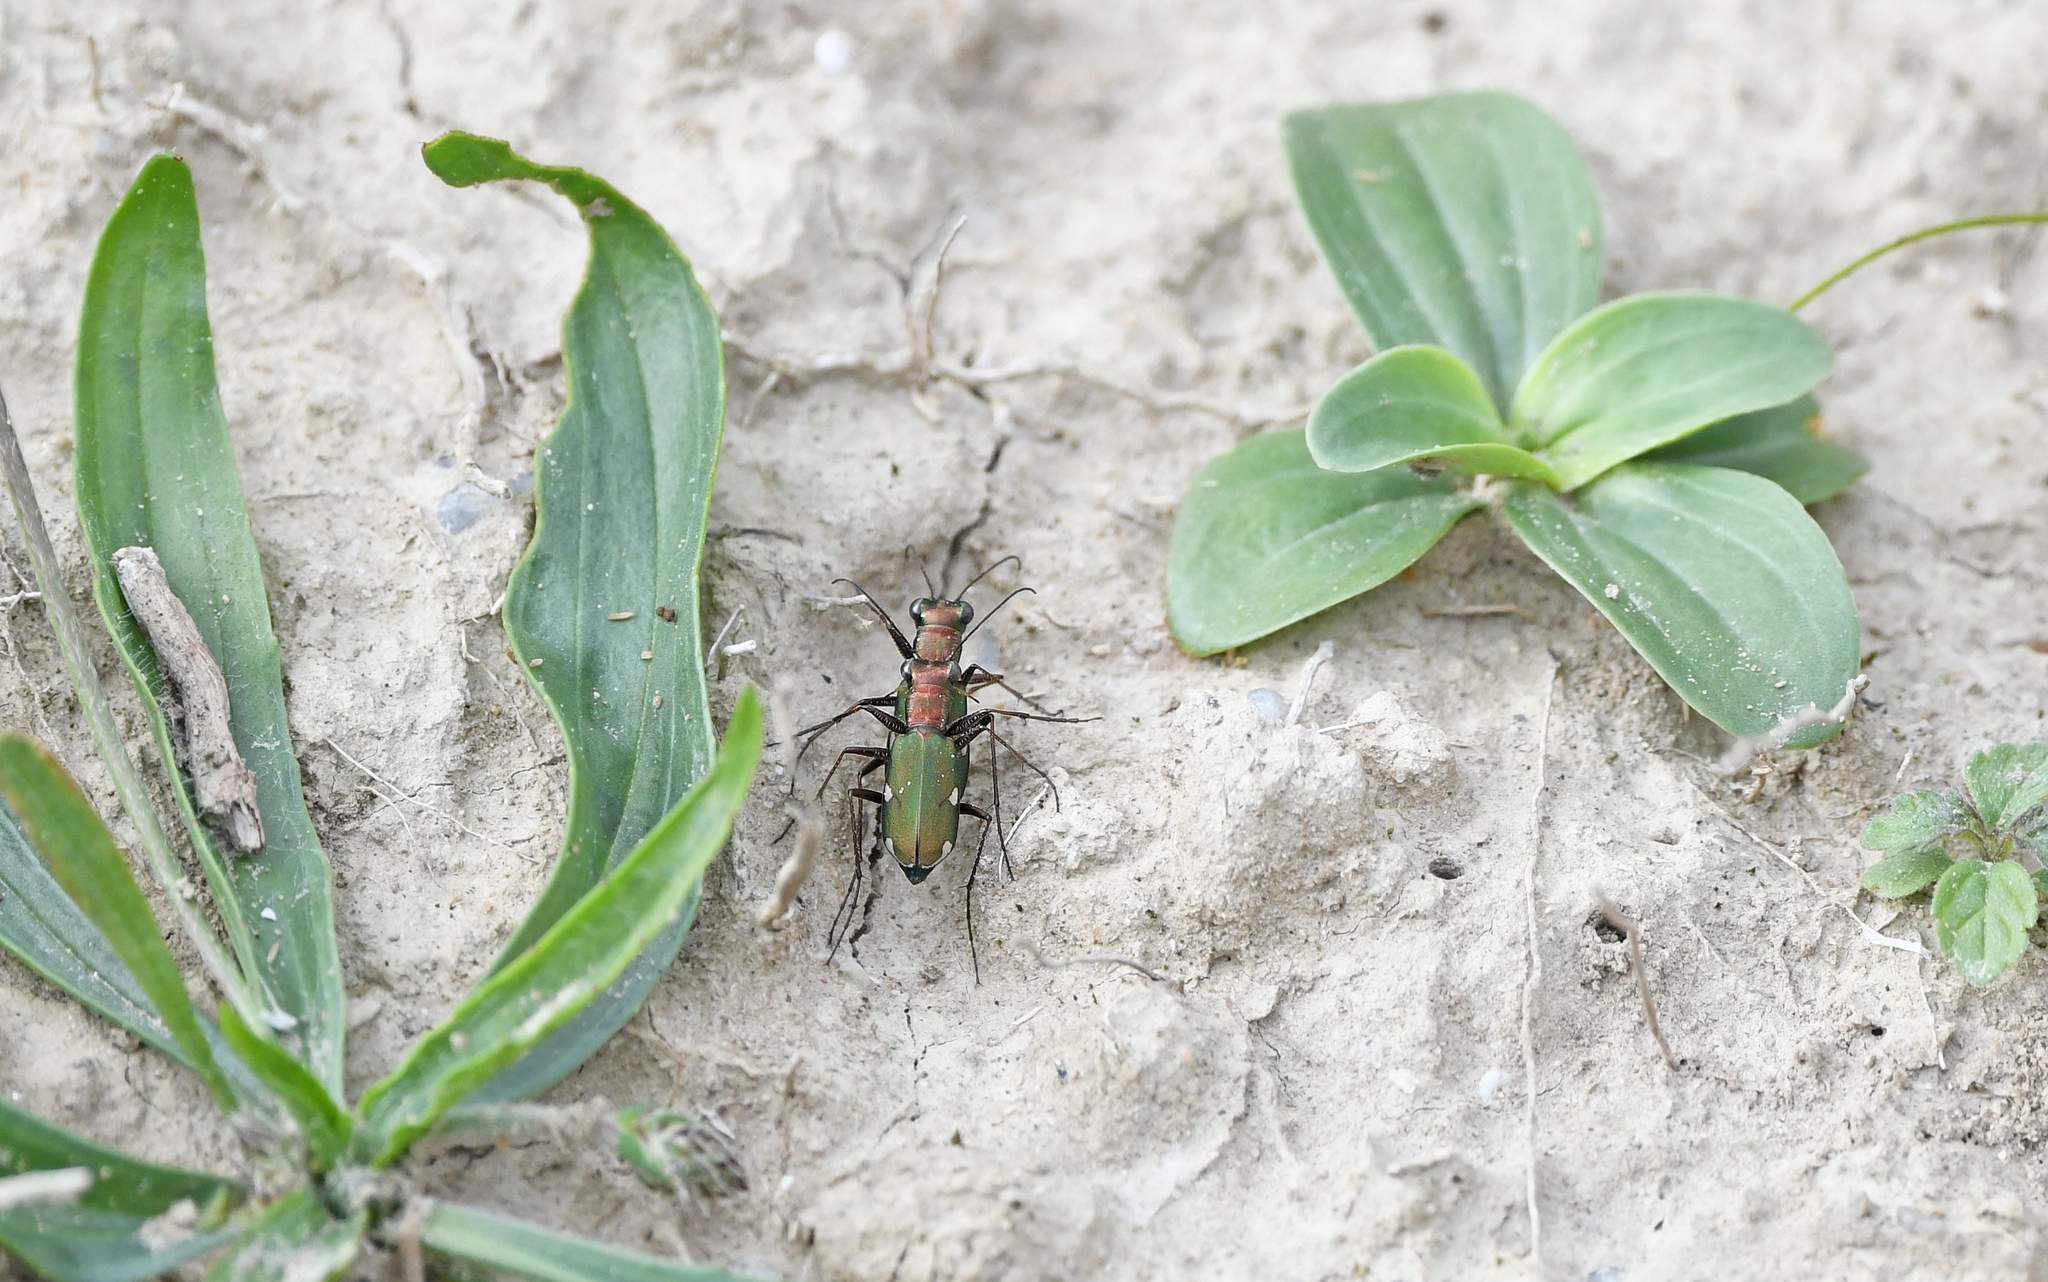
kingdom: Animalia
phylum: Arthropoda
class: Insecta
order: Coleoptera
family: Carabidae
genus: Cylindera
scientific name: Cylindera germanica
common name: Cliff tiger beetle
